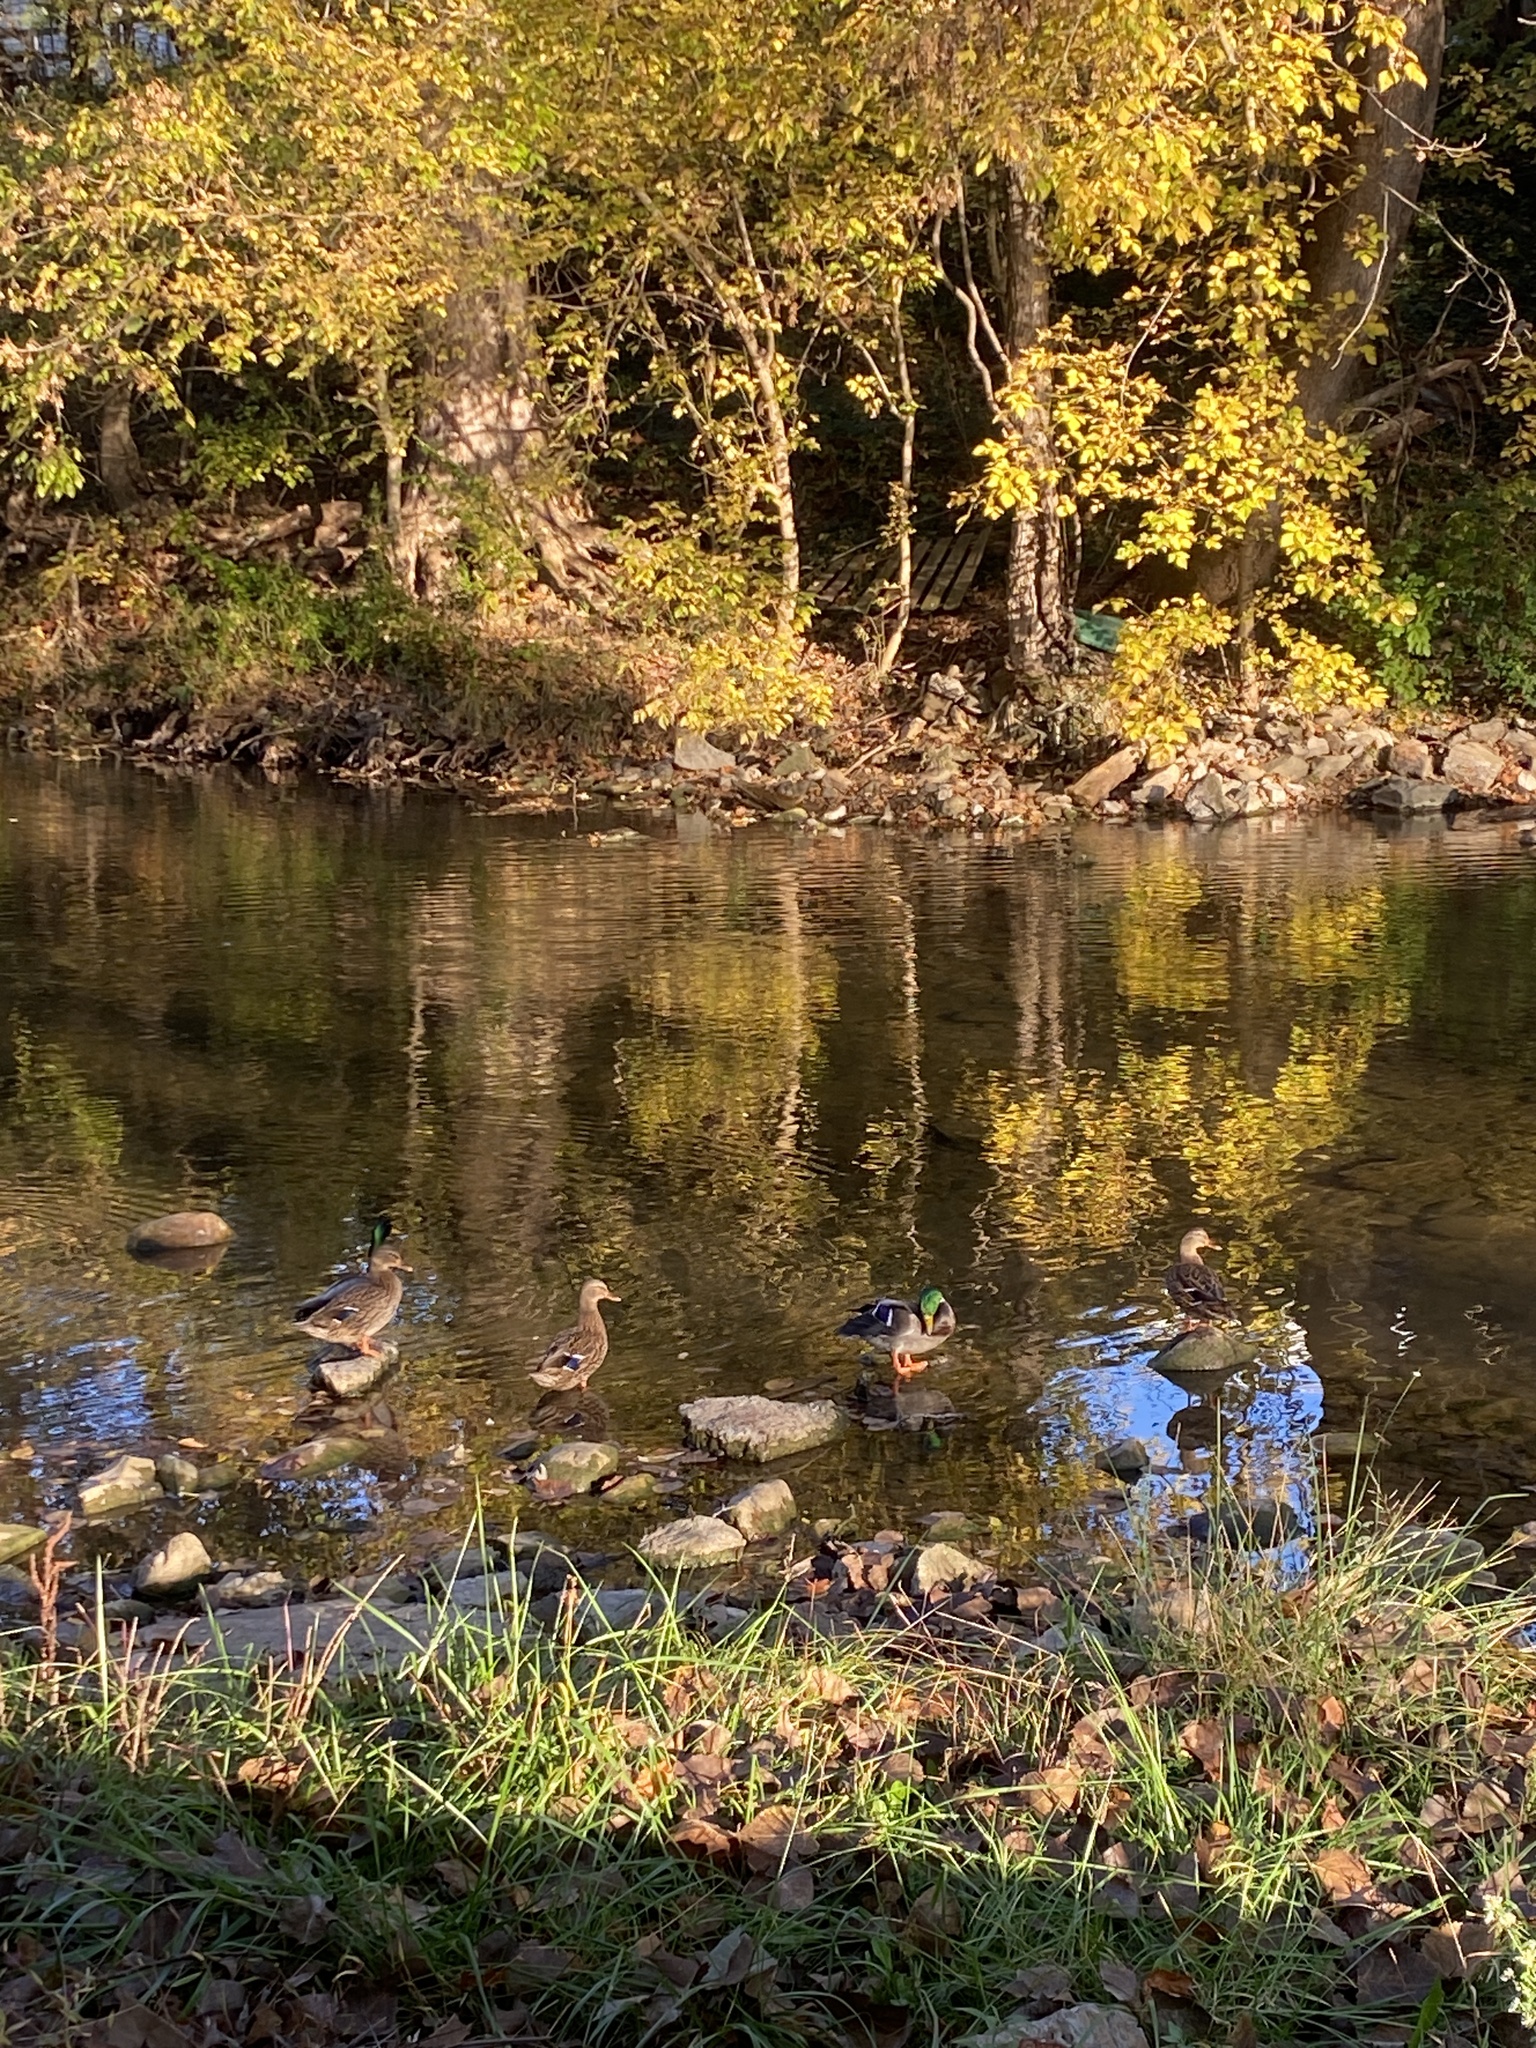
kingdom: Animalia
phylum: Chordata
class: Aves
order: Anseriformes
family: Anatidae
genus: Anas
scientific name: Anas platyrhynchos
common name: Mallard
